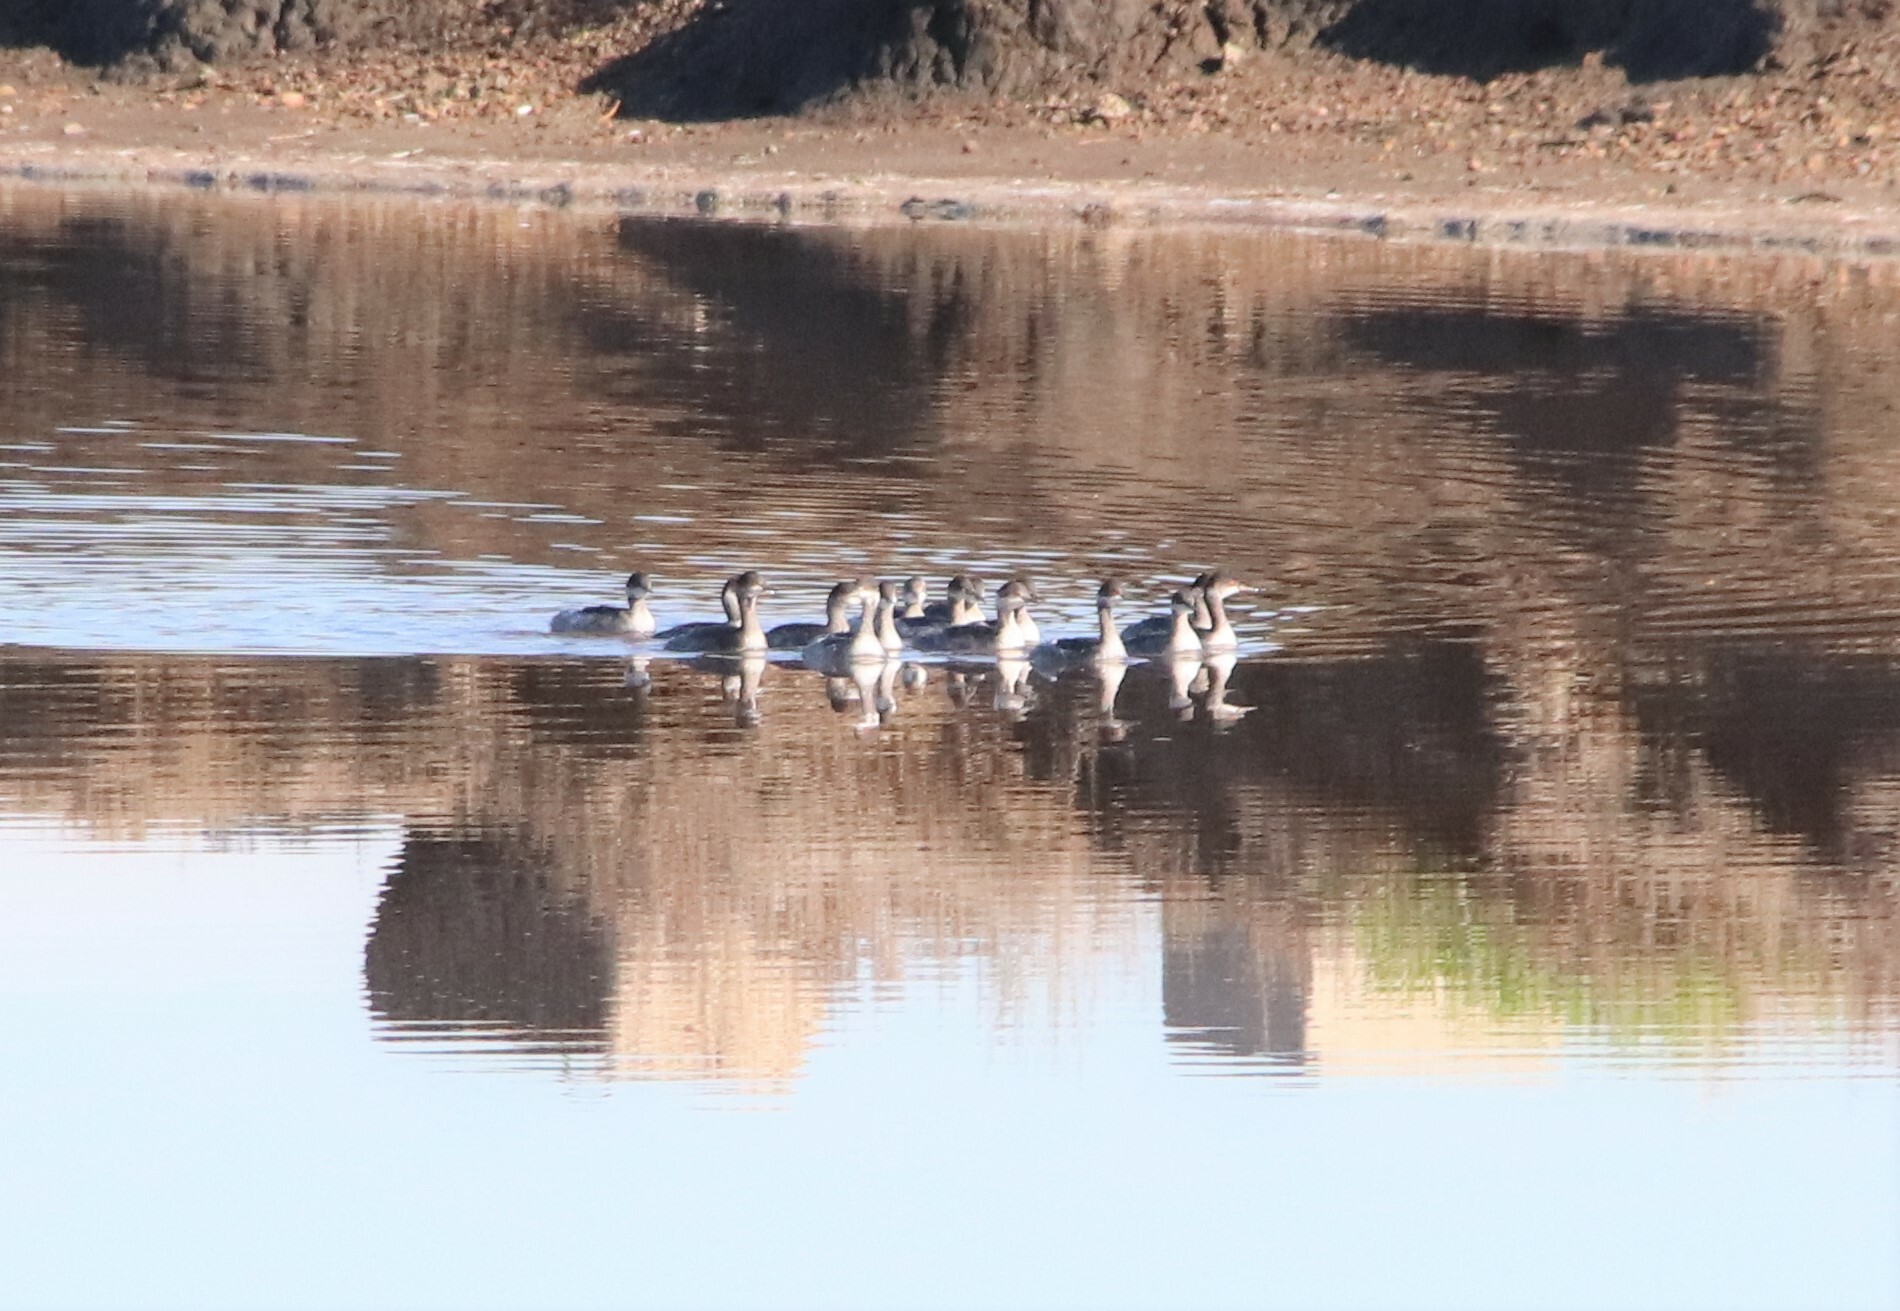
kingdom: Animalia
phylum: Chordata
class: Aves
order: Podicipediformes
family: Podicipedidae
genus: Podiceps
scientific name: Podiceps nigricollis
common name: Black-necked grebe
